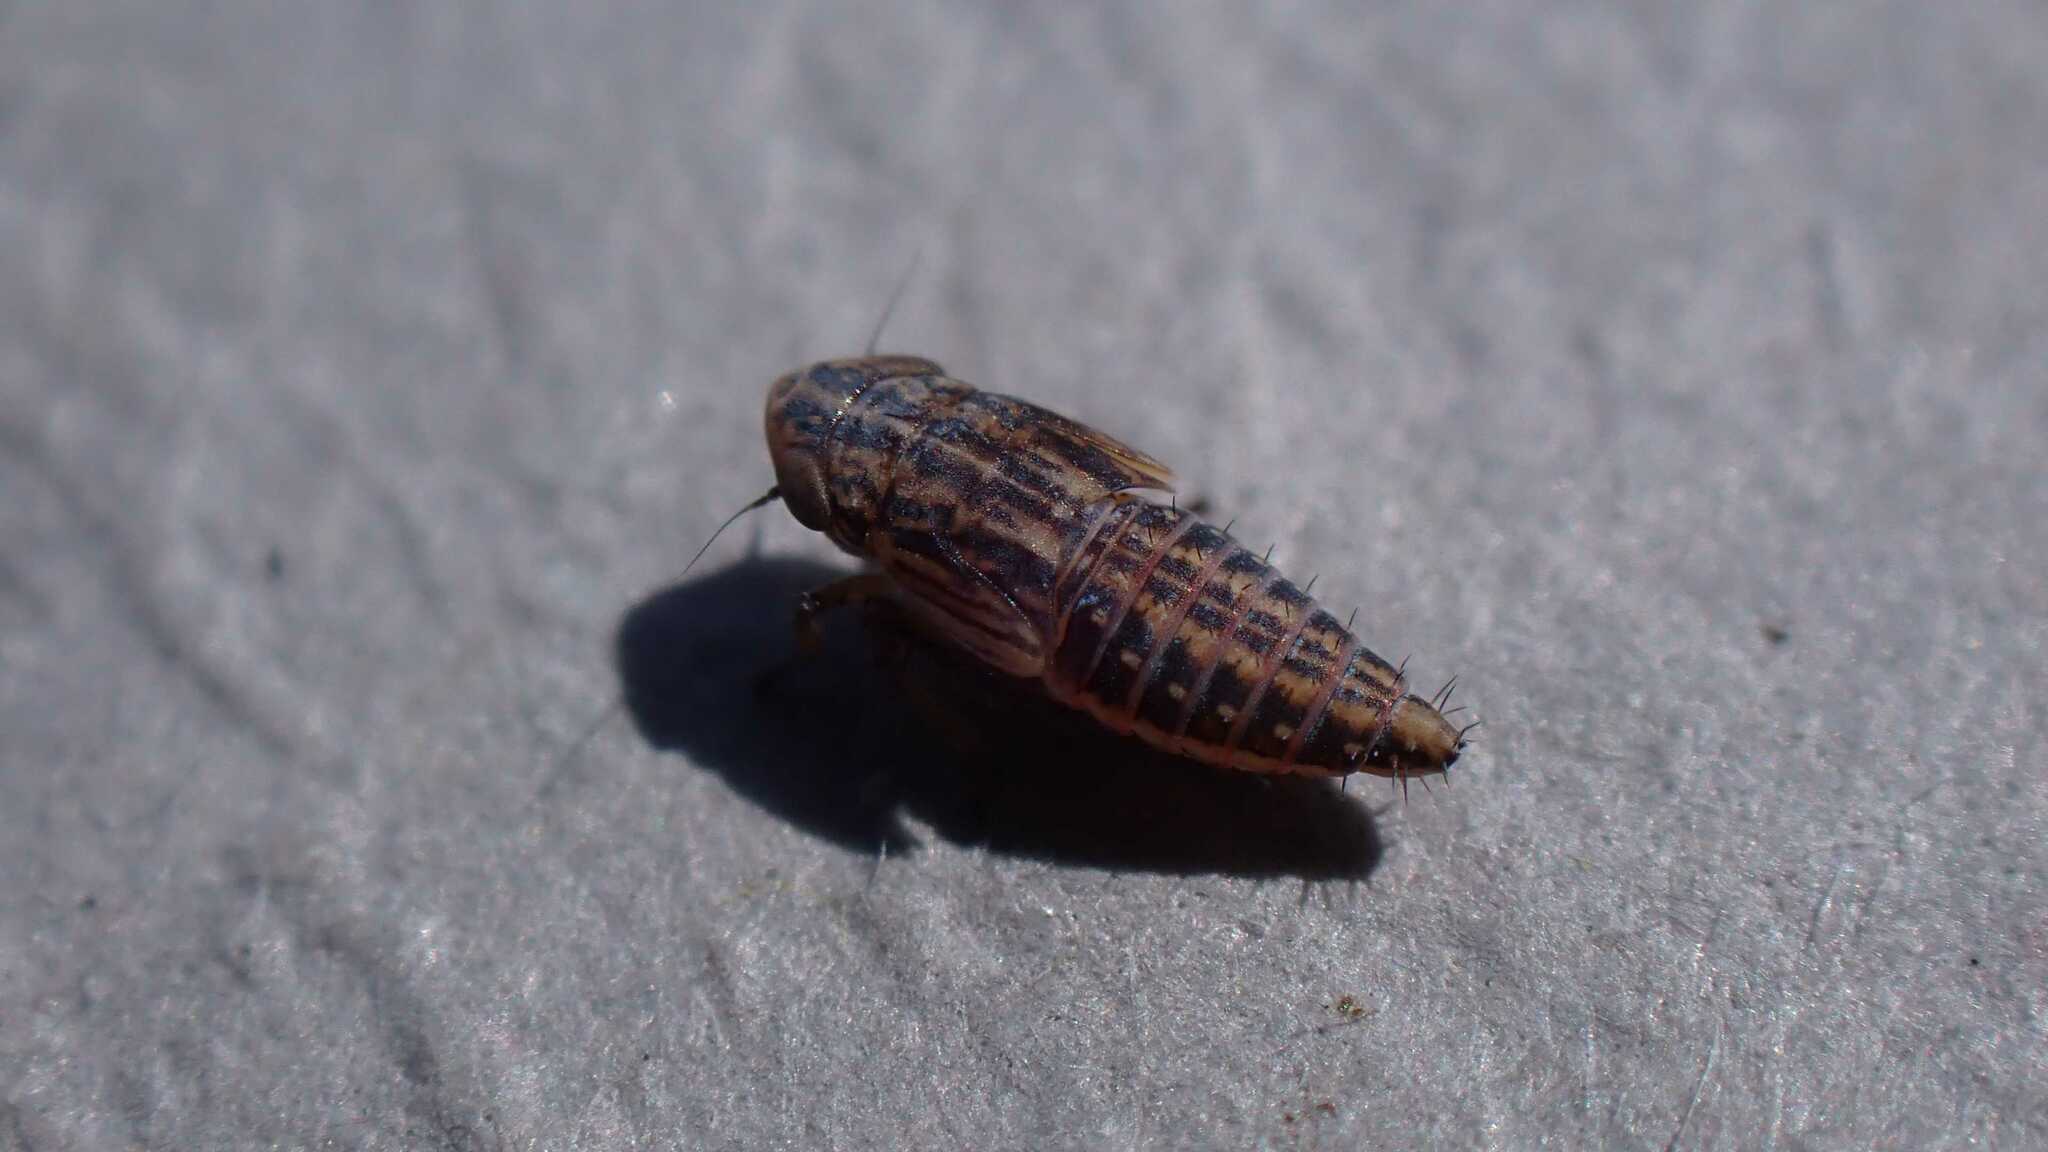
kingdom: Animalia
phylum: Arthropoda
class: Insecta
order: Hemiptera
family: Cicadellidae
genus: Euscelis
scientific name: Euscelis incisa
